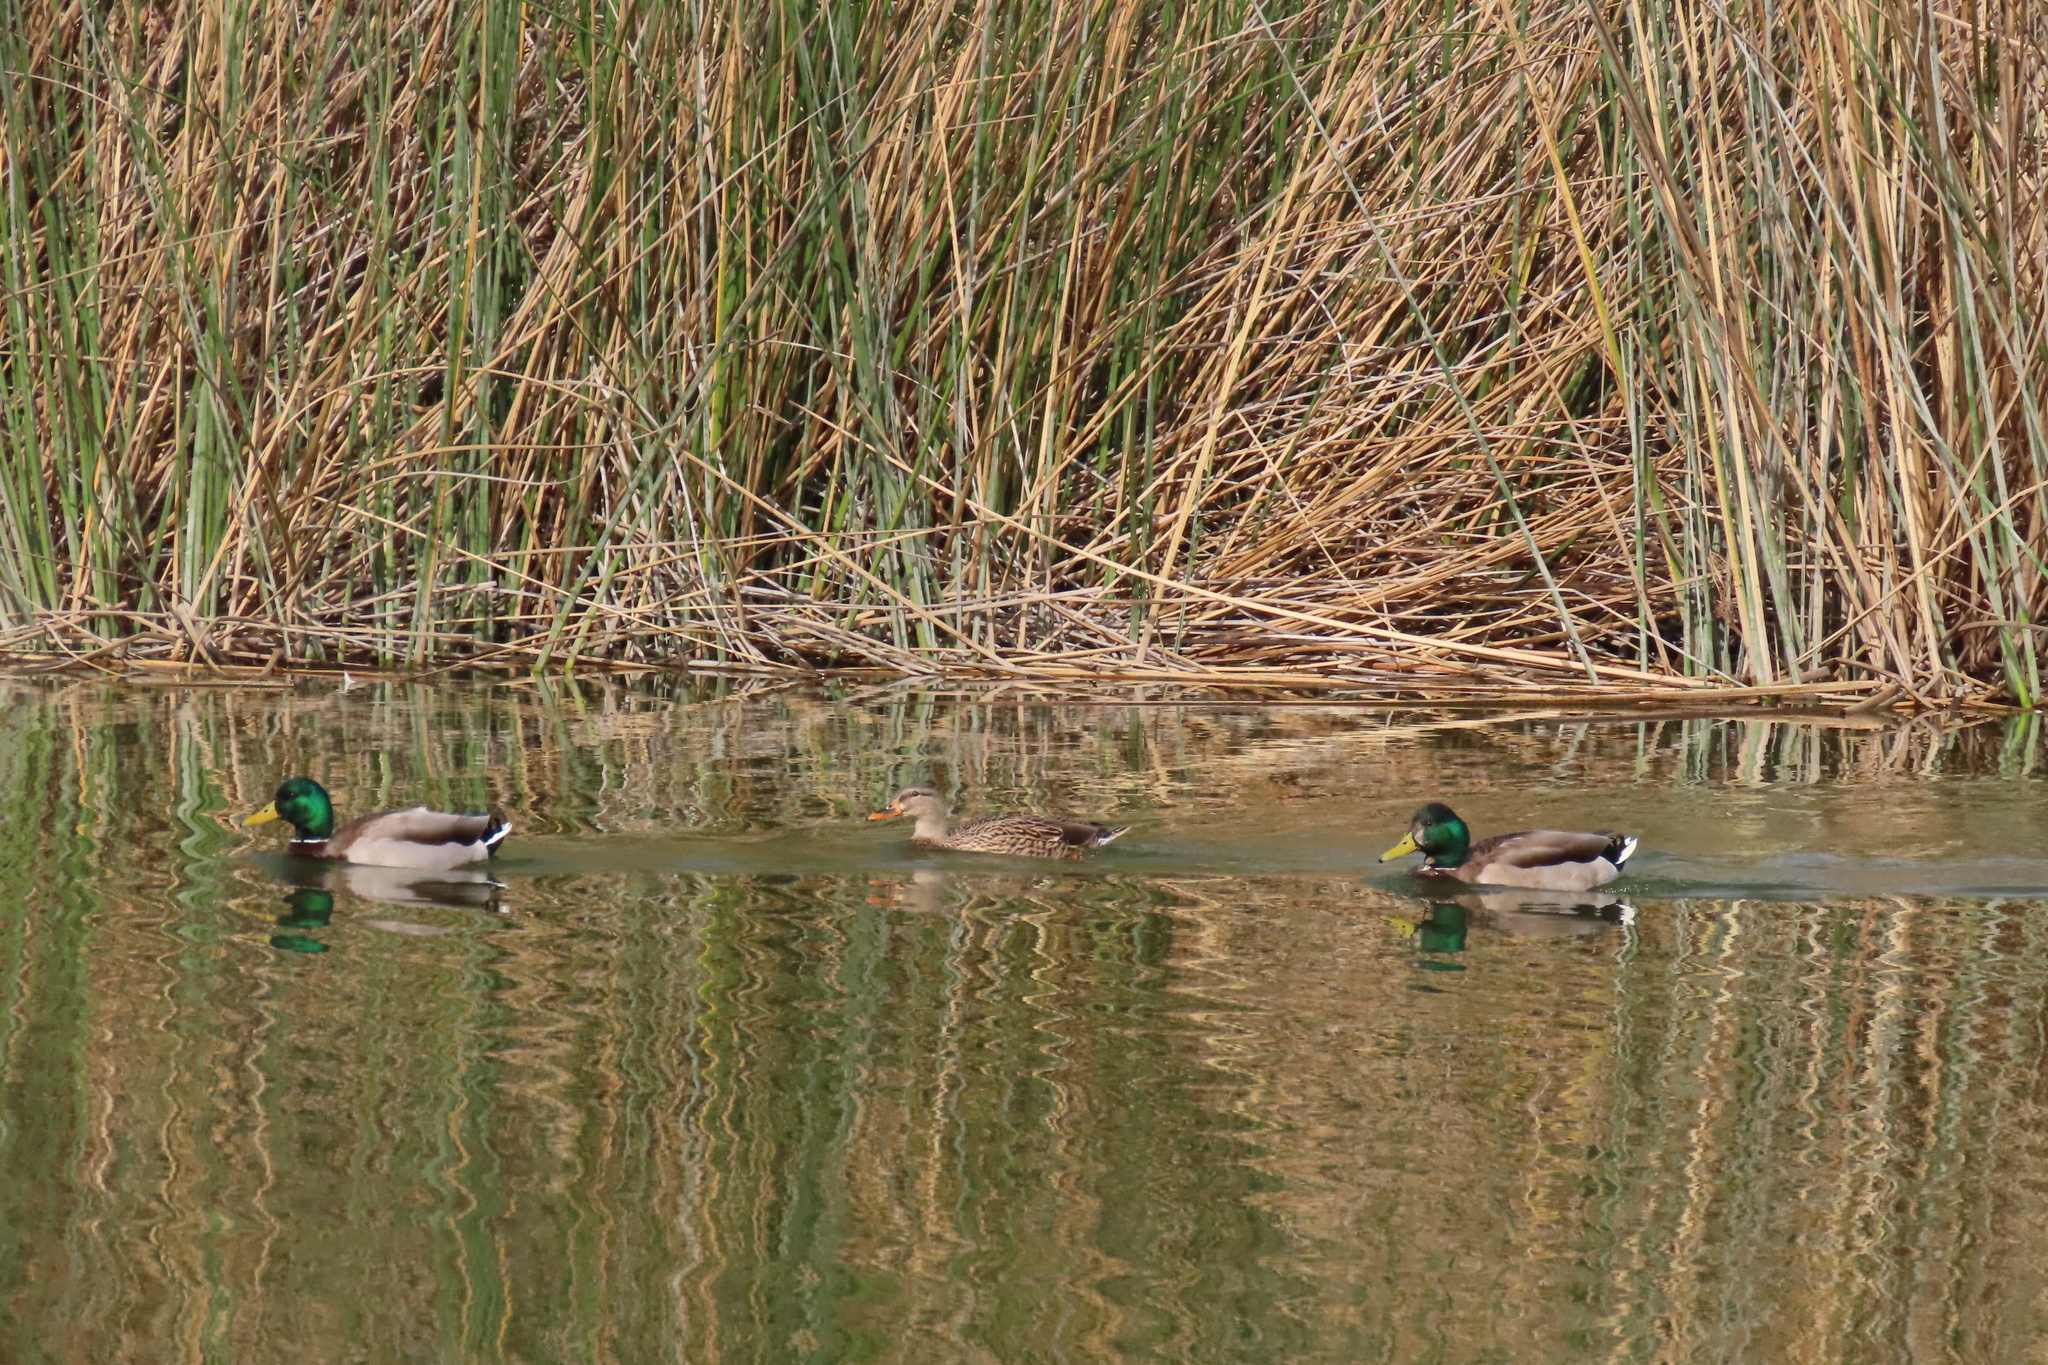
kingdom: Animalia
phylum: Chordata
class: Aves
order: Anseriformes
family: Anatidae
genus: Anas
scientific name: Anas platyrhynchos
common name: Mallard
